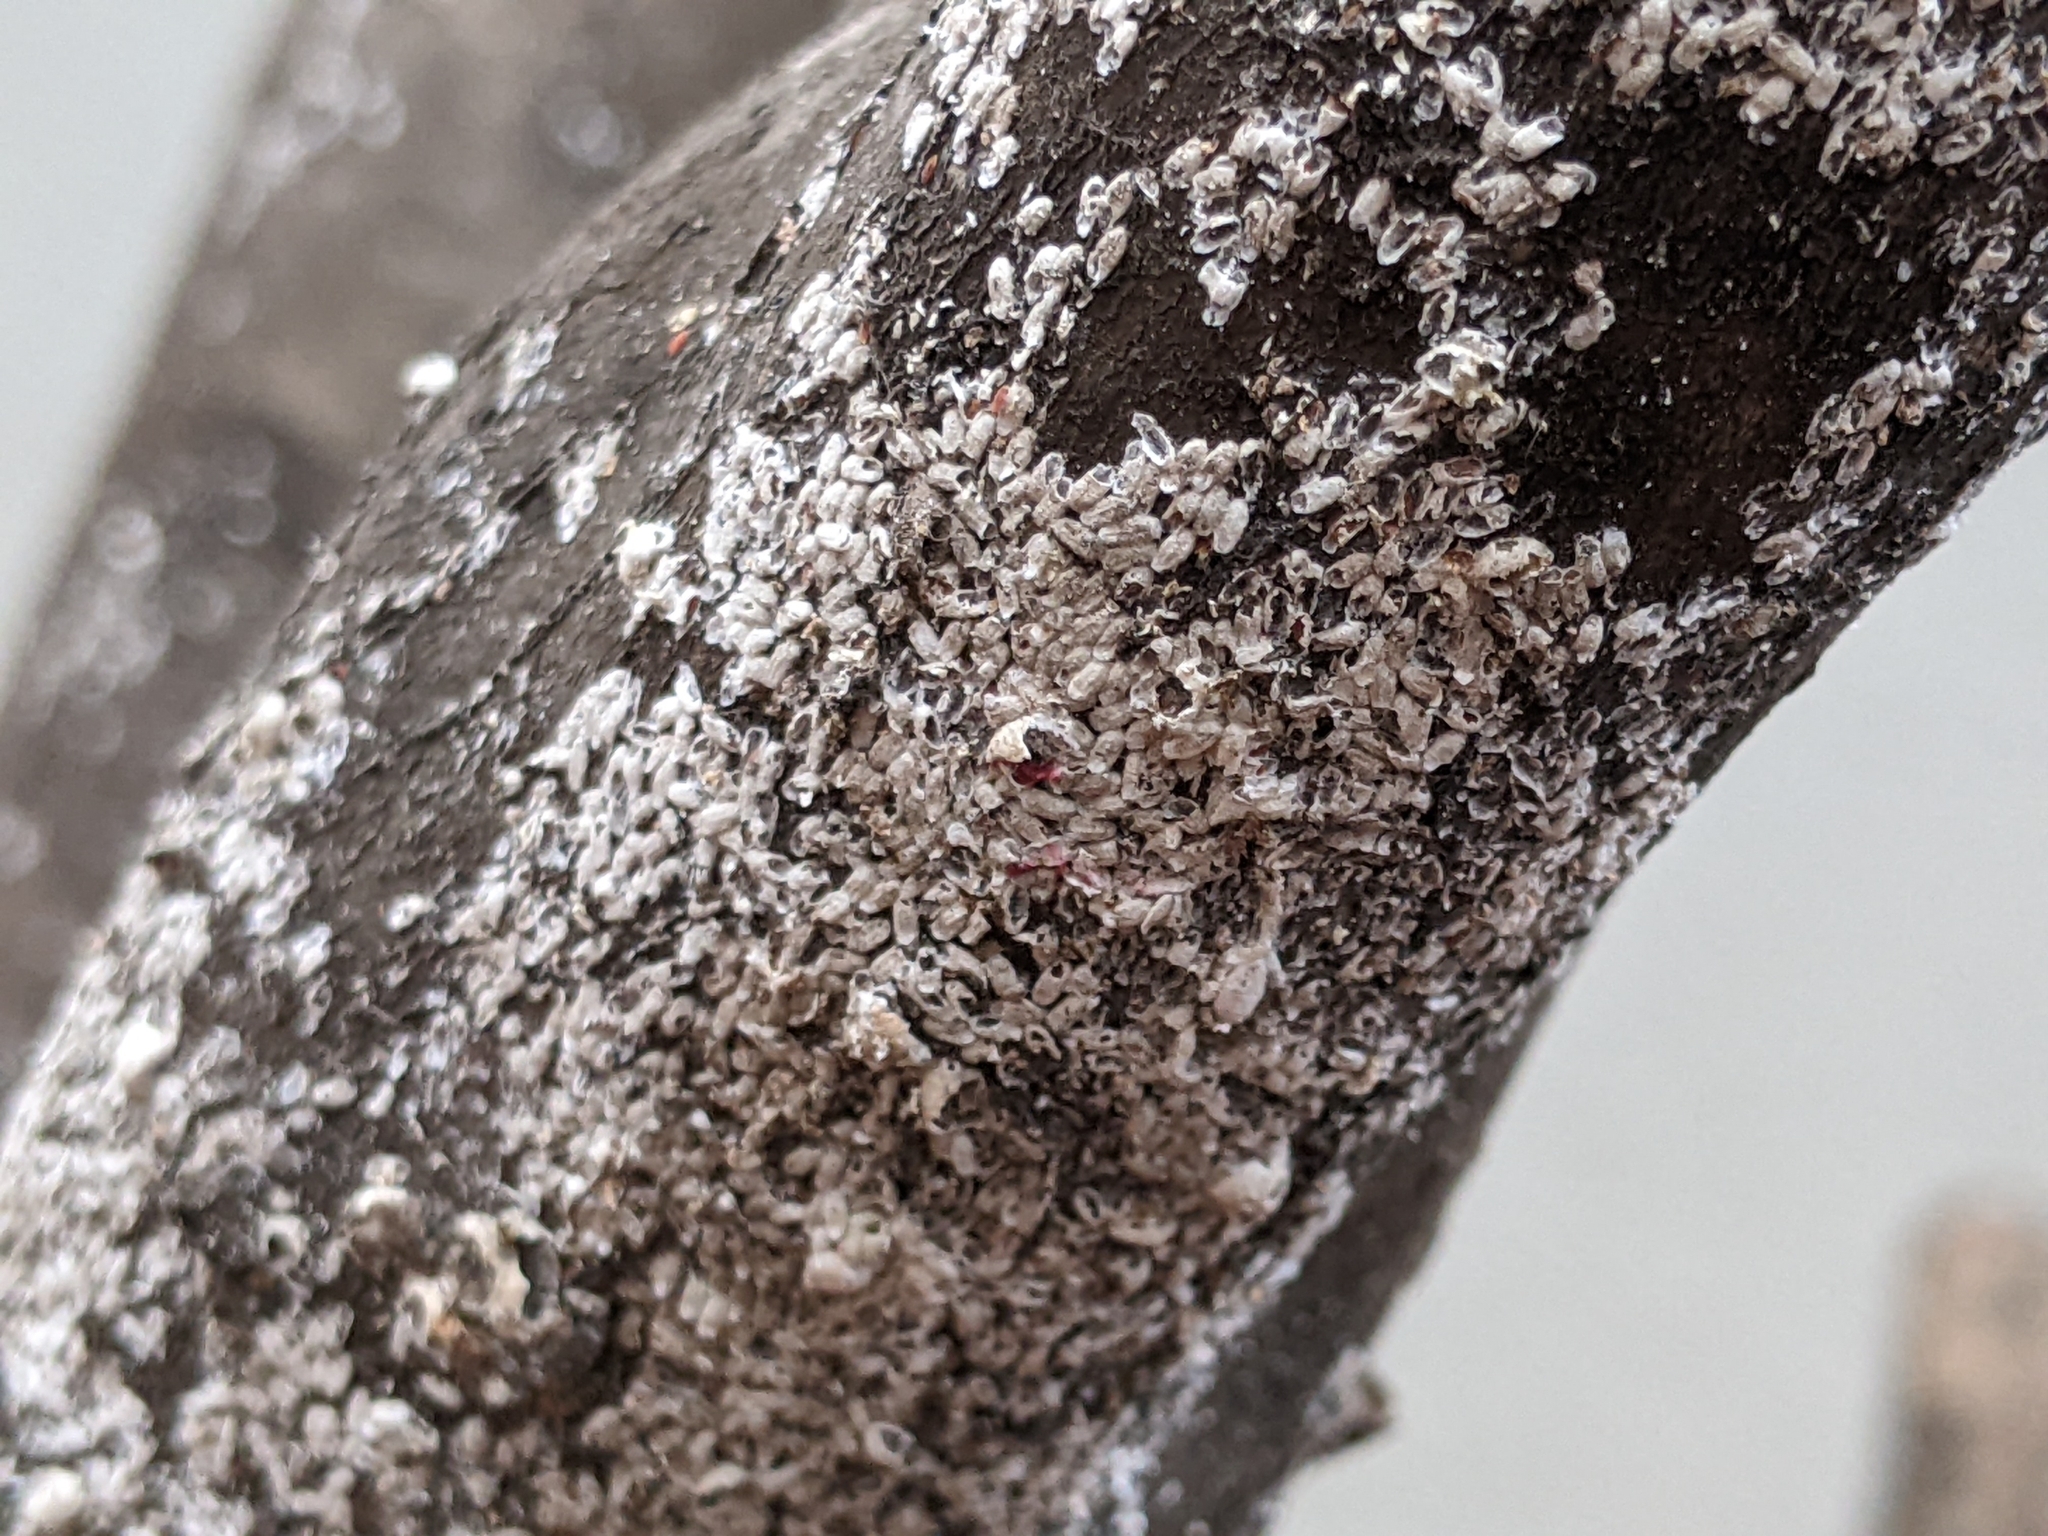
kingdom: Animalia
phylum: Arthropoda
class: Insecta
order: Hemiptera
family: Eriococcidae
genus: Eriococcus
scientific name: Eriococcus lagerstroemiae
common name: Crapemyrtle bark scale
